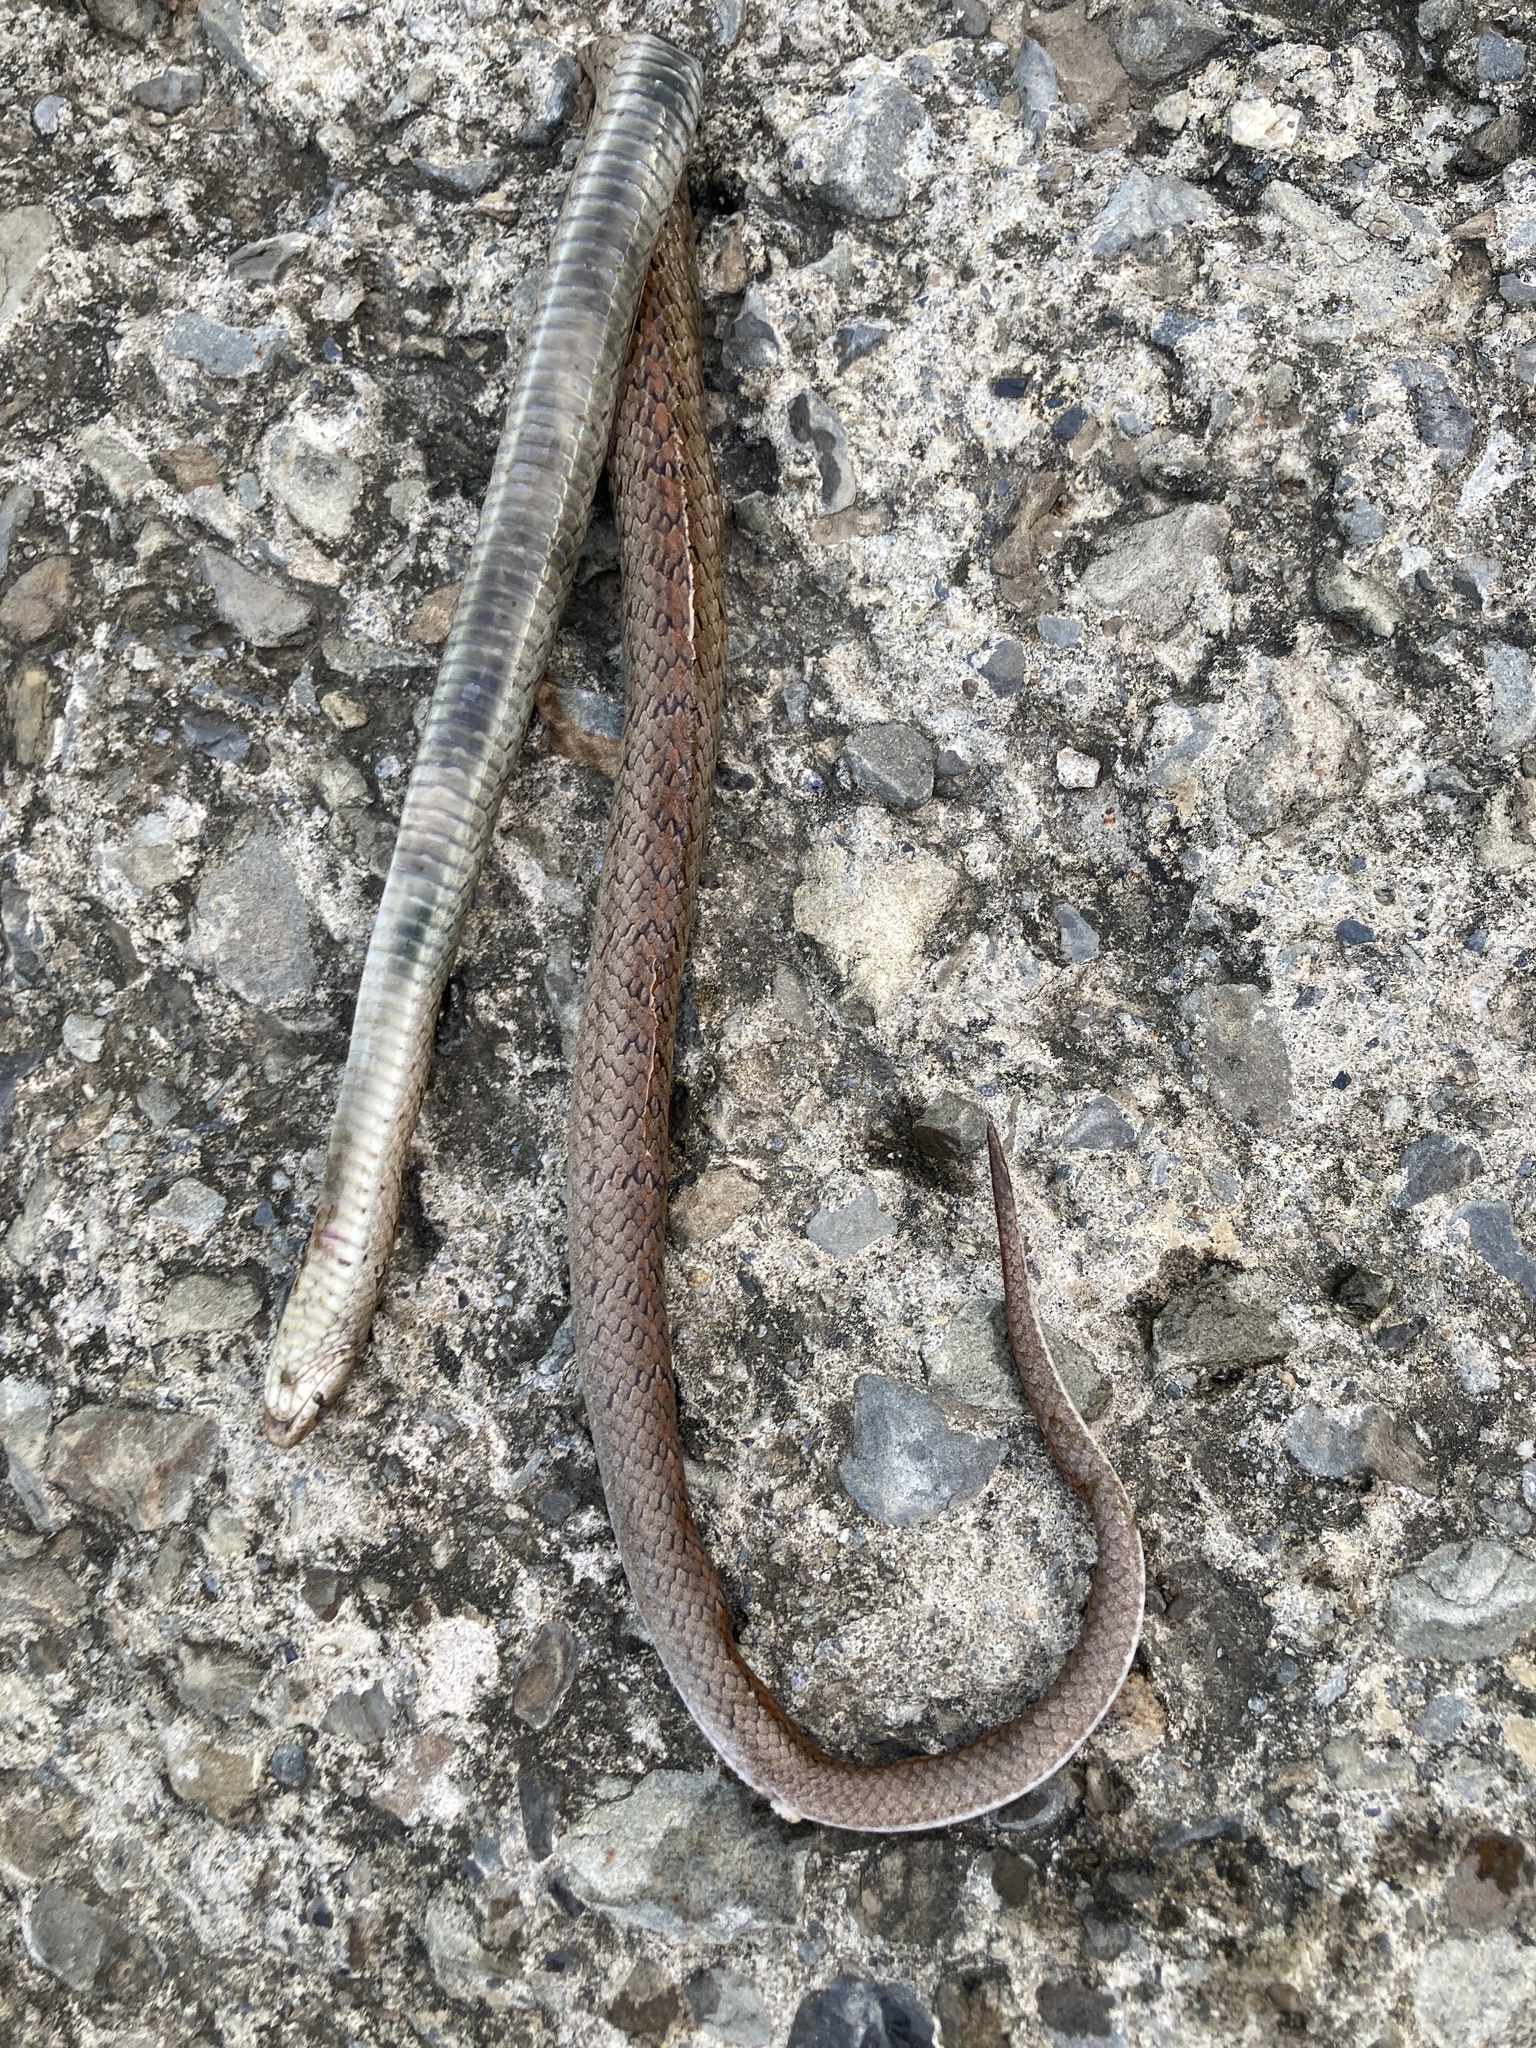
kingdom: Animalia
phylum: Chordata
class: Squamata
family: Colubridae
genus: Oligodon
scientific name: Oligodon formosanus
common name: Formosa kukri snake
